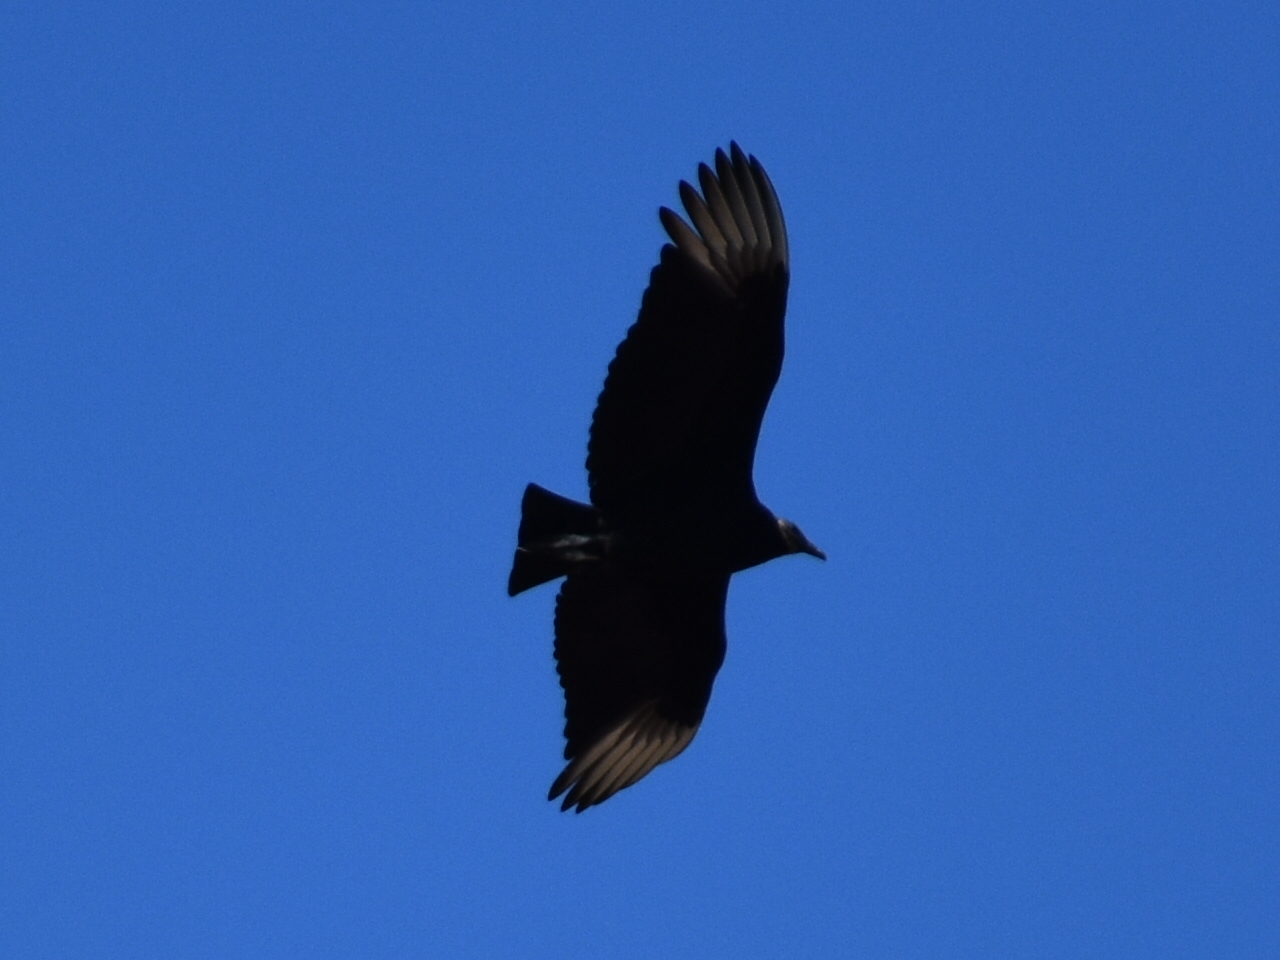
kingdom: Animalia
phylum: Chordata
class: Aves
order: Accipitriformes
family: Cathartidae
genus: Coragyps
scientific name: Coragyps atratus
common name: Black vulture
